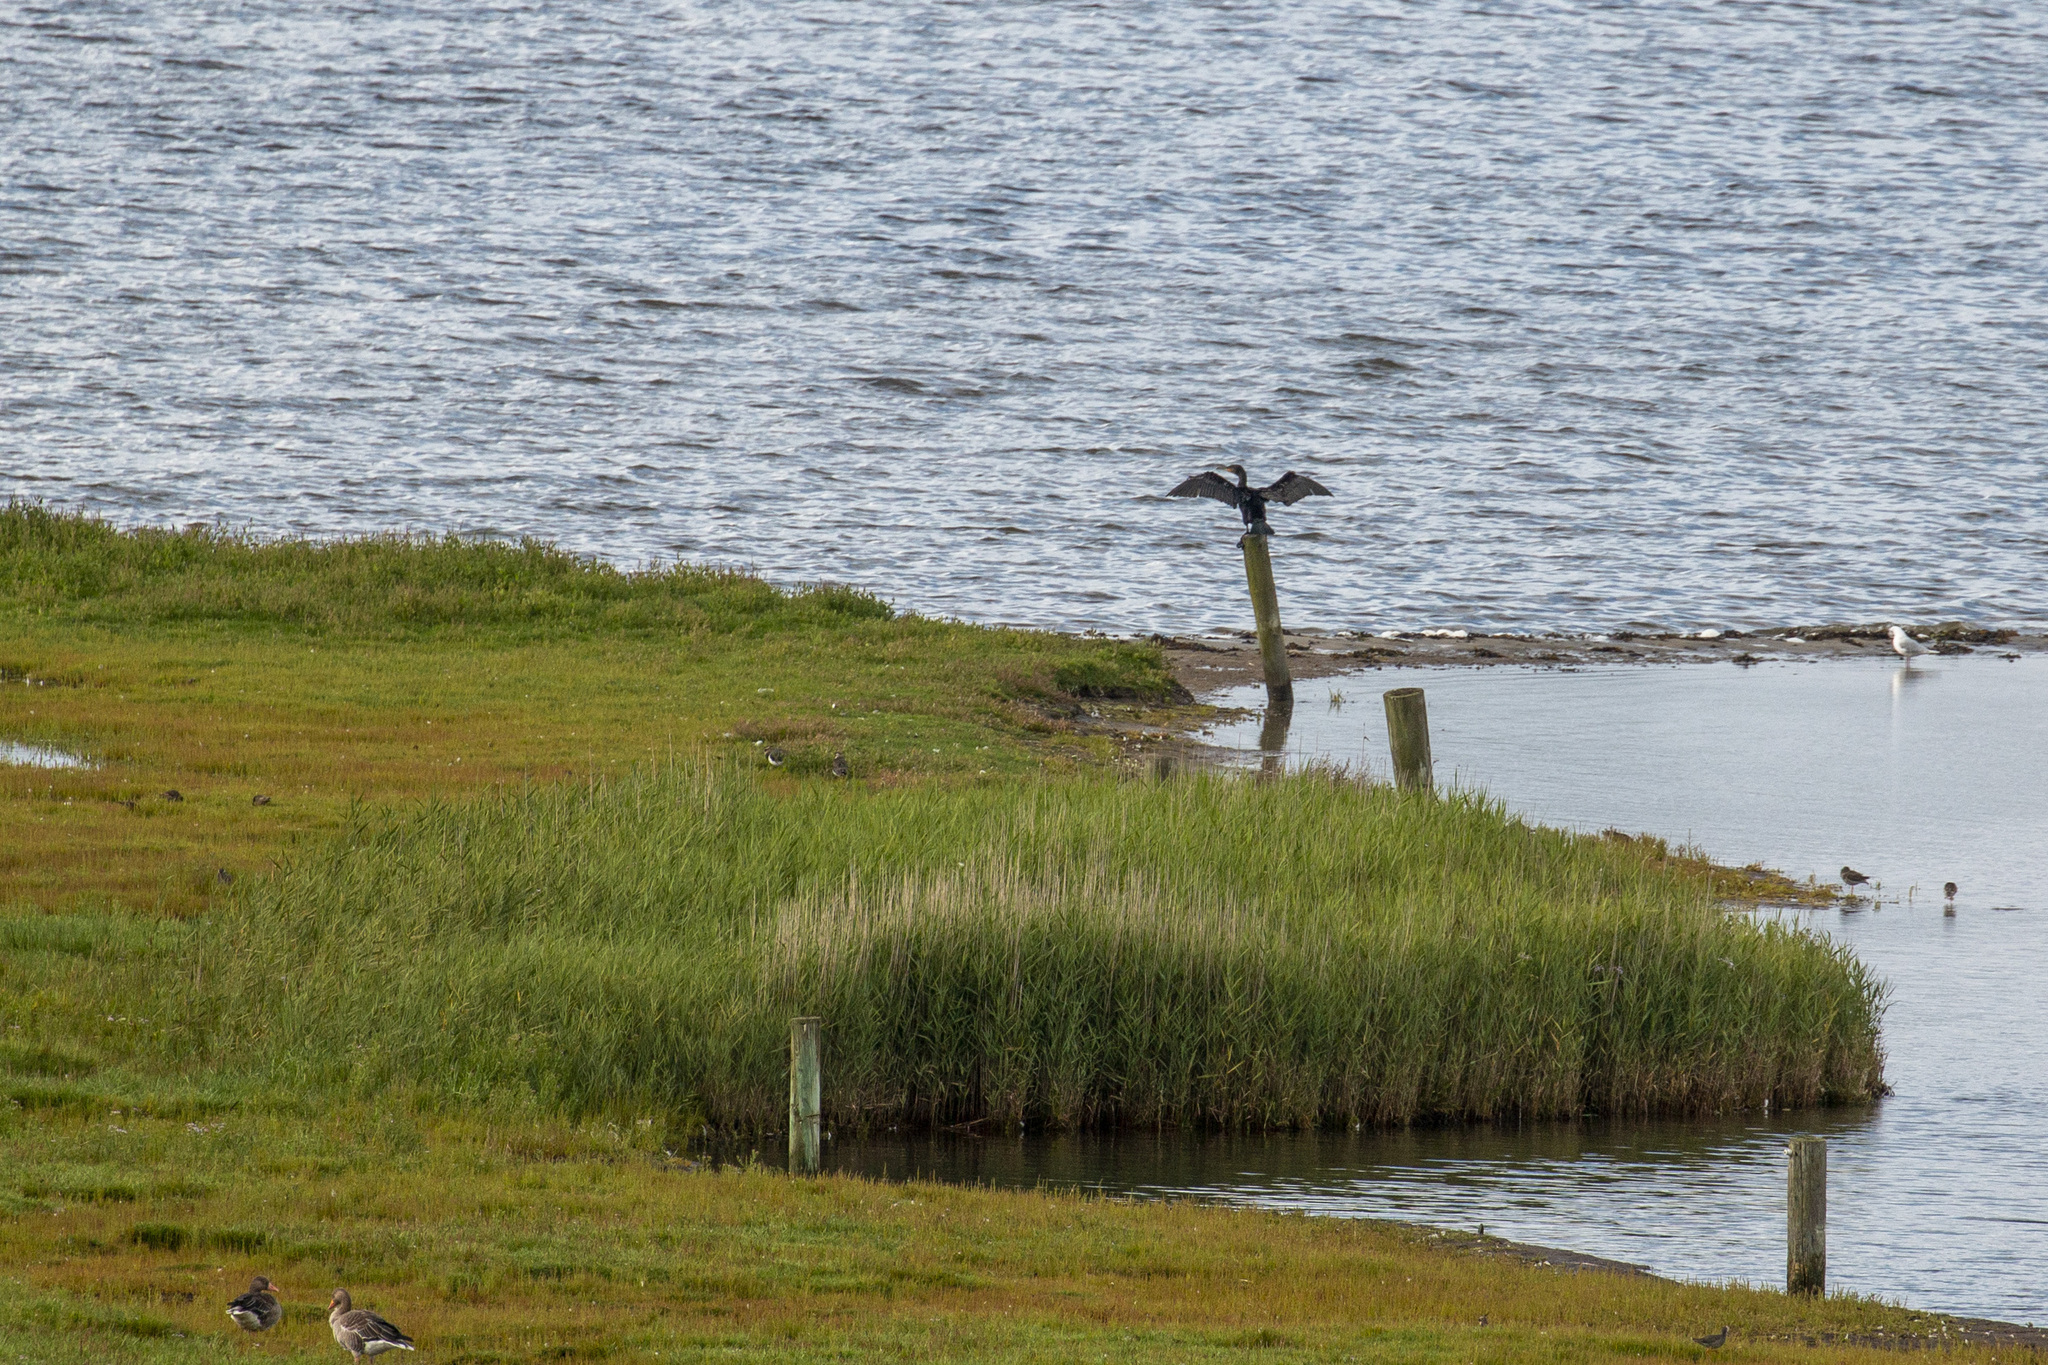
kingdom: Animalia
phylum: Chordata
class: Aves
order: Suliformes
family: Phalacrocoracidae
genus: Phalacrocorax
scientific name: Phalacrocorax carbo
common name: Great cormorant
